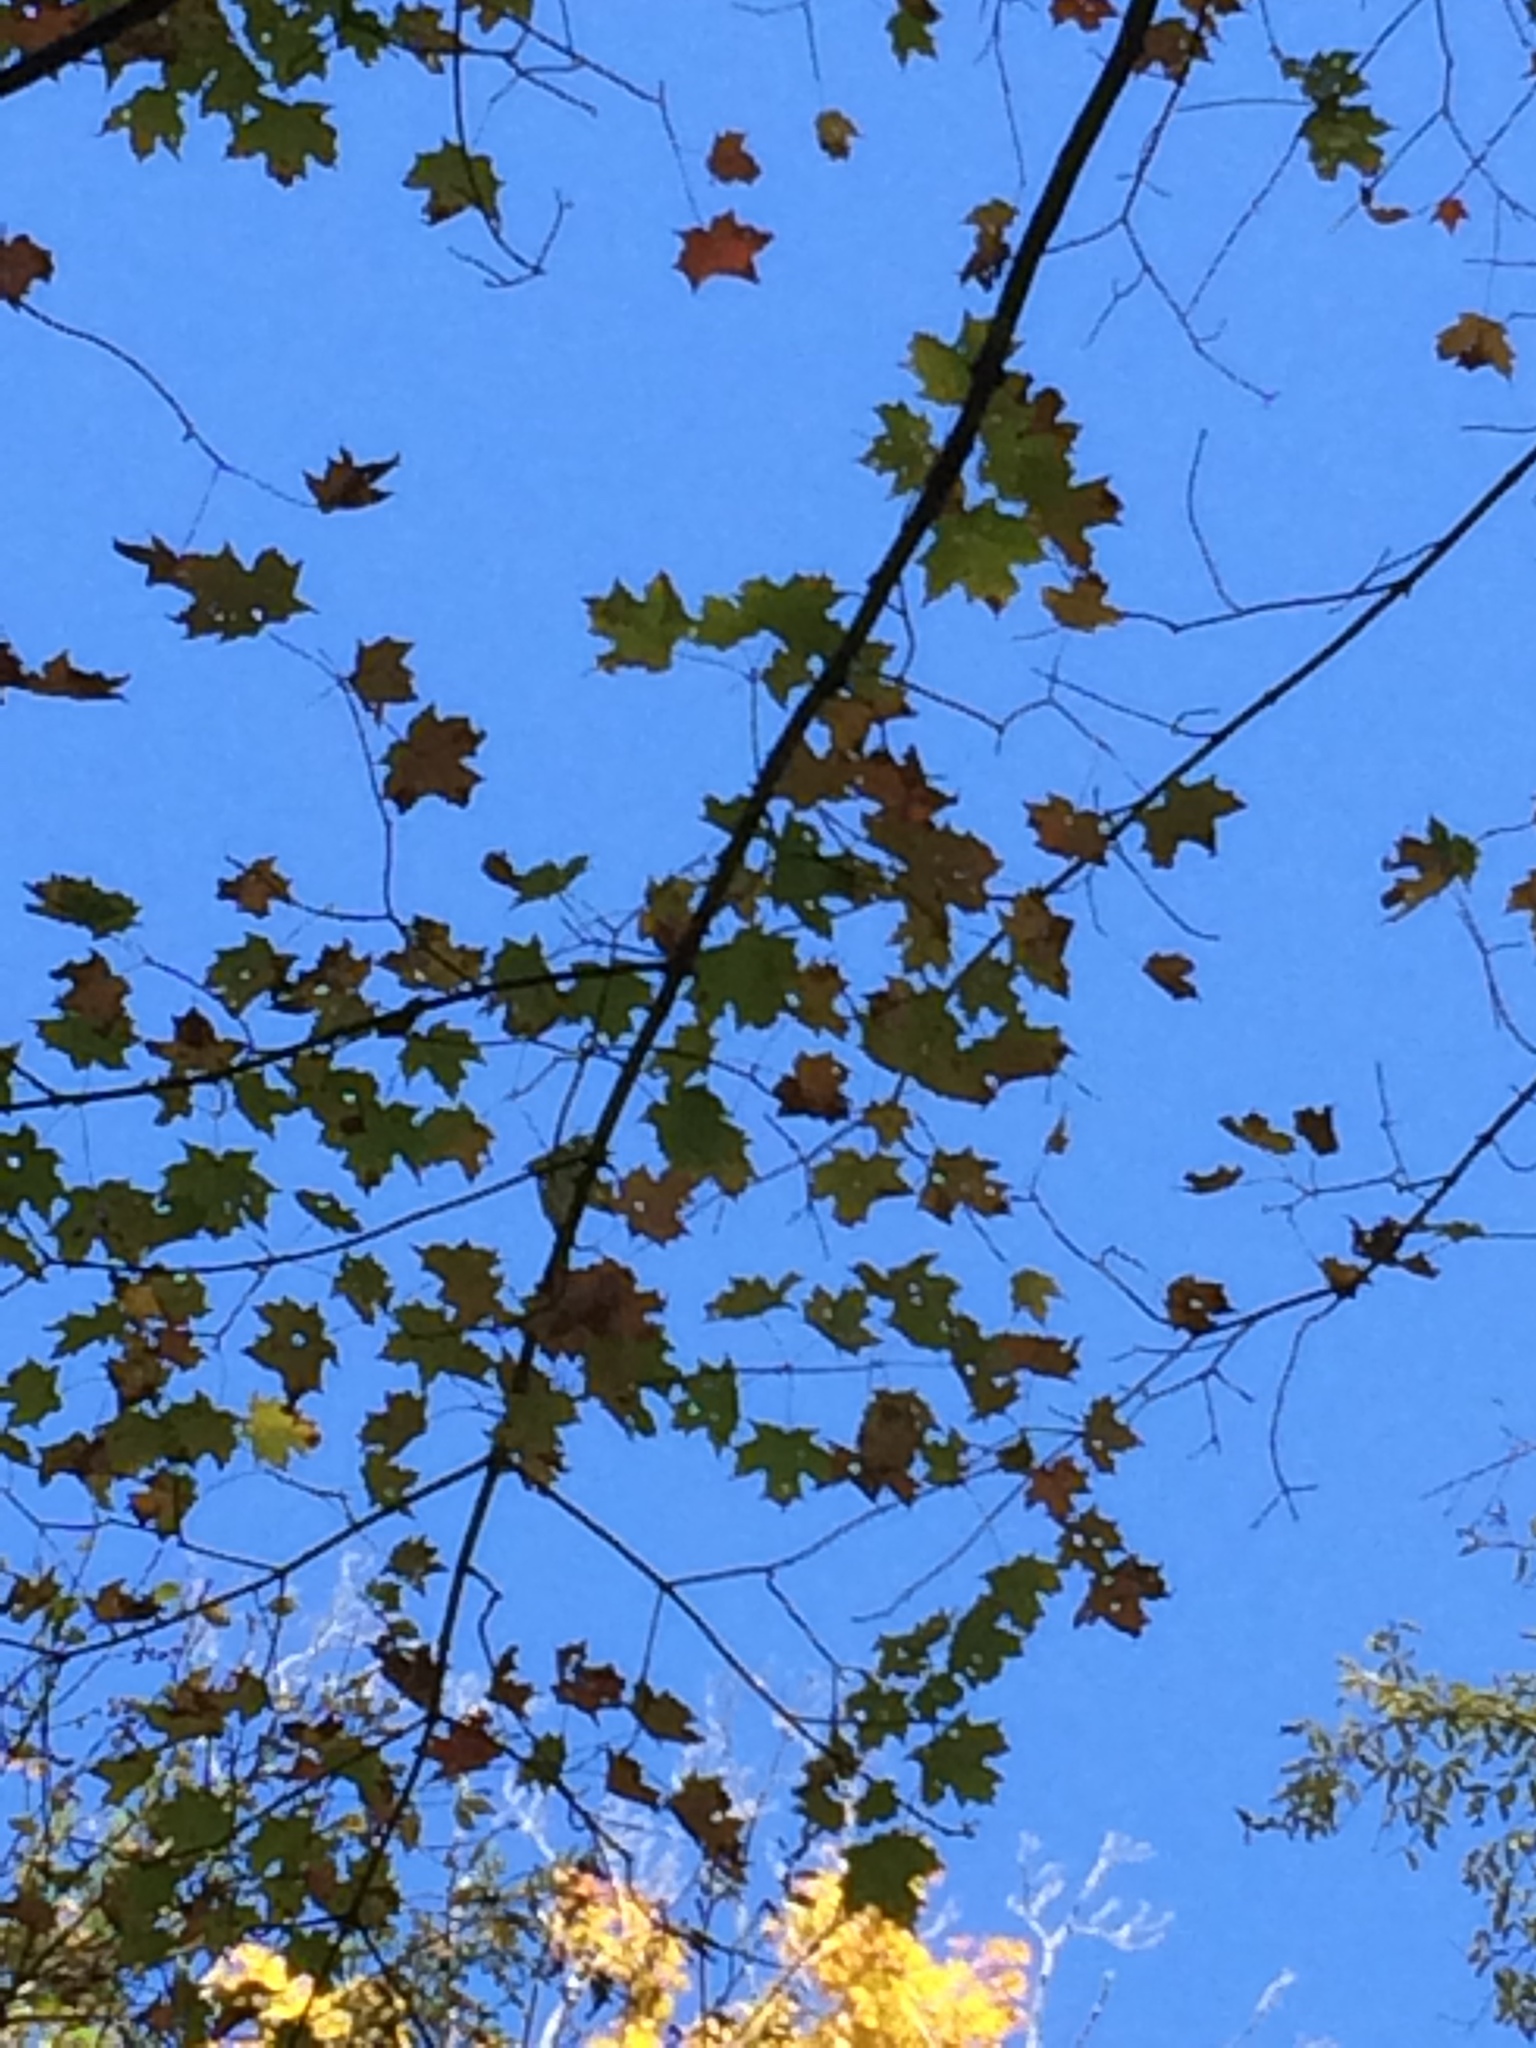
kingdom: Plantae
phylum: Tracheophyta
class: Magnoliopsida
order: Sapindales
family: Sapindaceae
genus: Acer
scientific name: Acer saccharum
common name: Sugar maple
